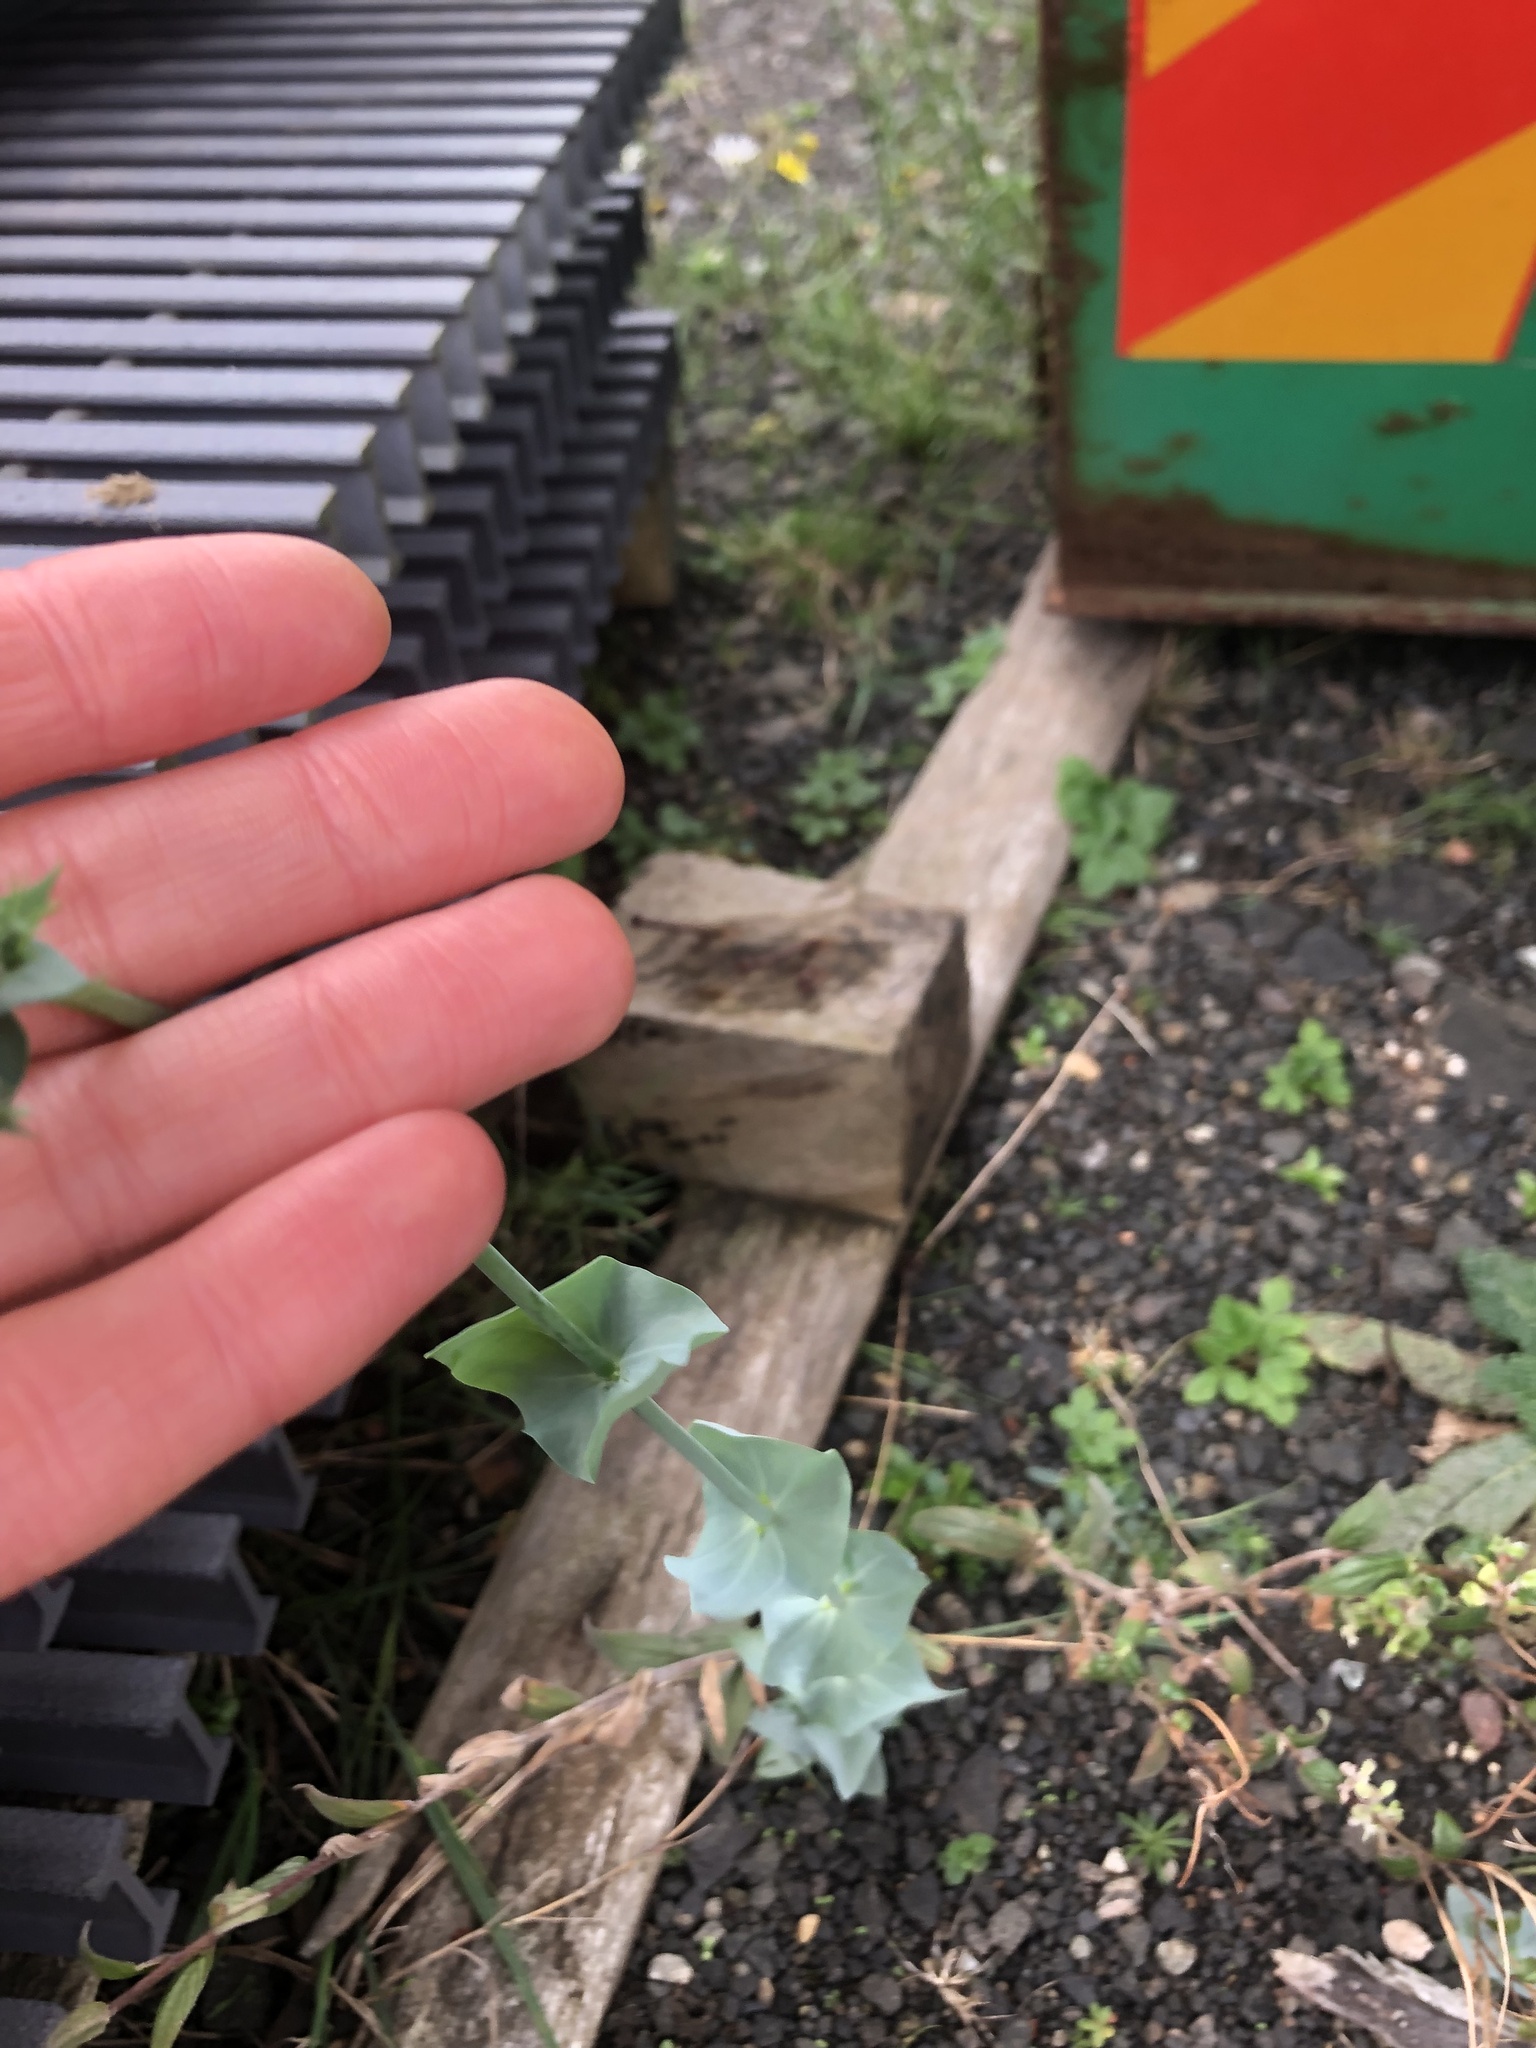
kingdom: Plantae
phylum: Tracheophyta
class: Magnoliopsida
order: Gentianales
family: Gentianaceae
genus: Blackstonia
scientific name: Blackstonia perfoliata
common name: Yellow-wort
